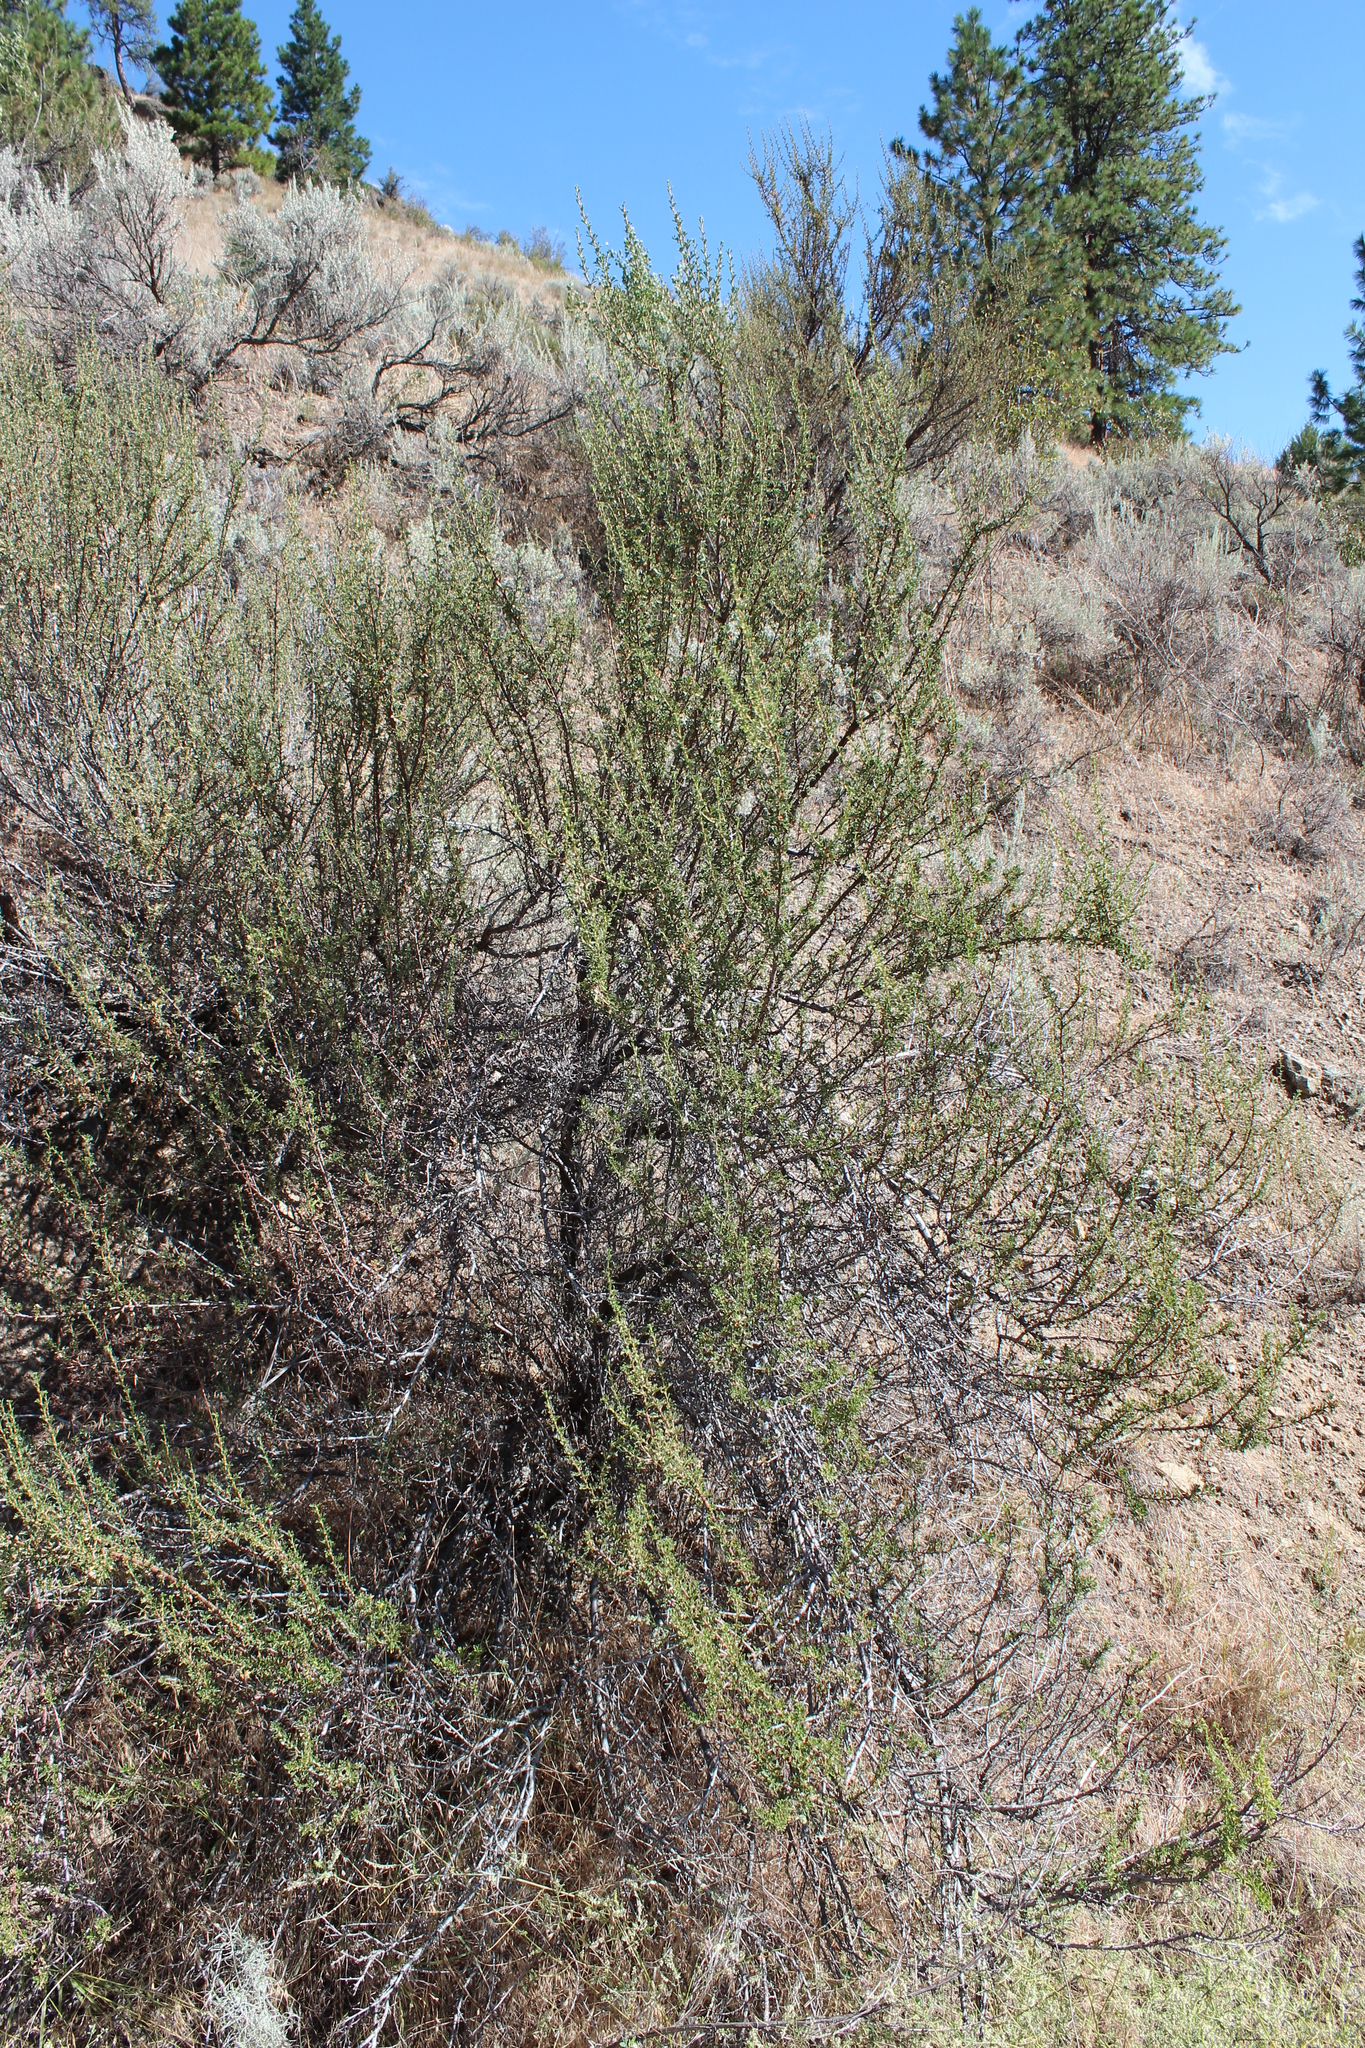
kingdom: Plantae
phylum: Tracheophyta
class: Magnoliopsida
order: Rosales
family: Rosaceae
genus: Purshia
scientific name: Purshia tridentata
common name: Antelope bitterbrush
